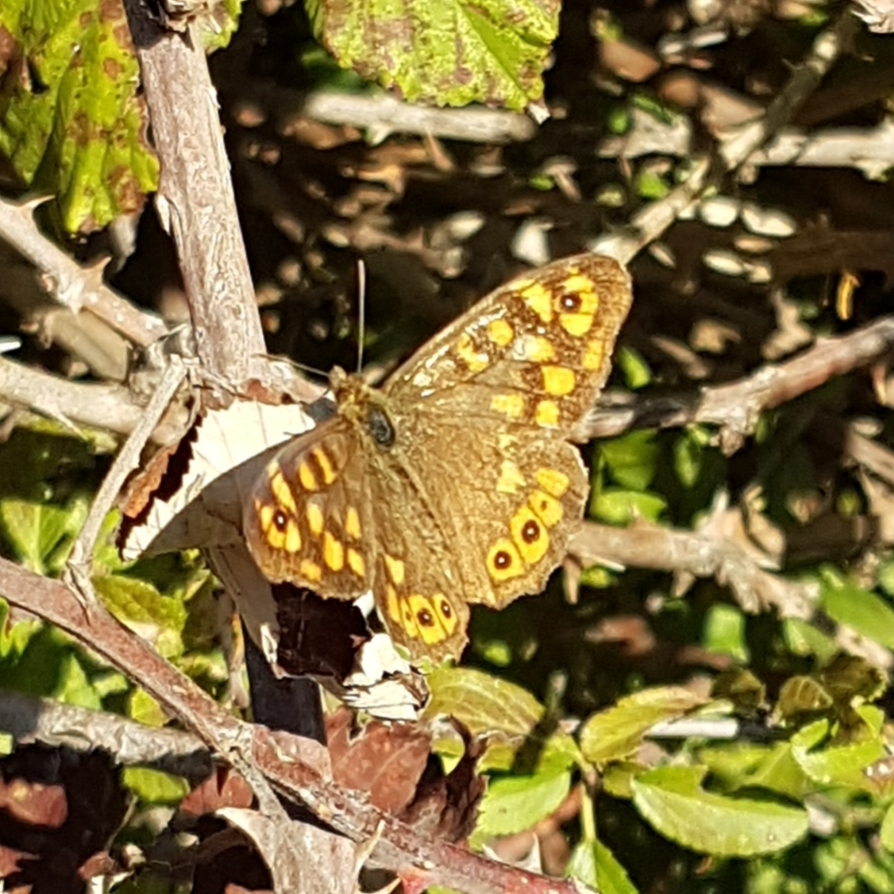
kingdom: Animalia
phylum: Arthropoda
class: Insecta
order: Lepidoptera
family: Nymphalidae
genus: Pararge
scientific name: Pararge aegeria
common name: Speckled wood
